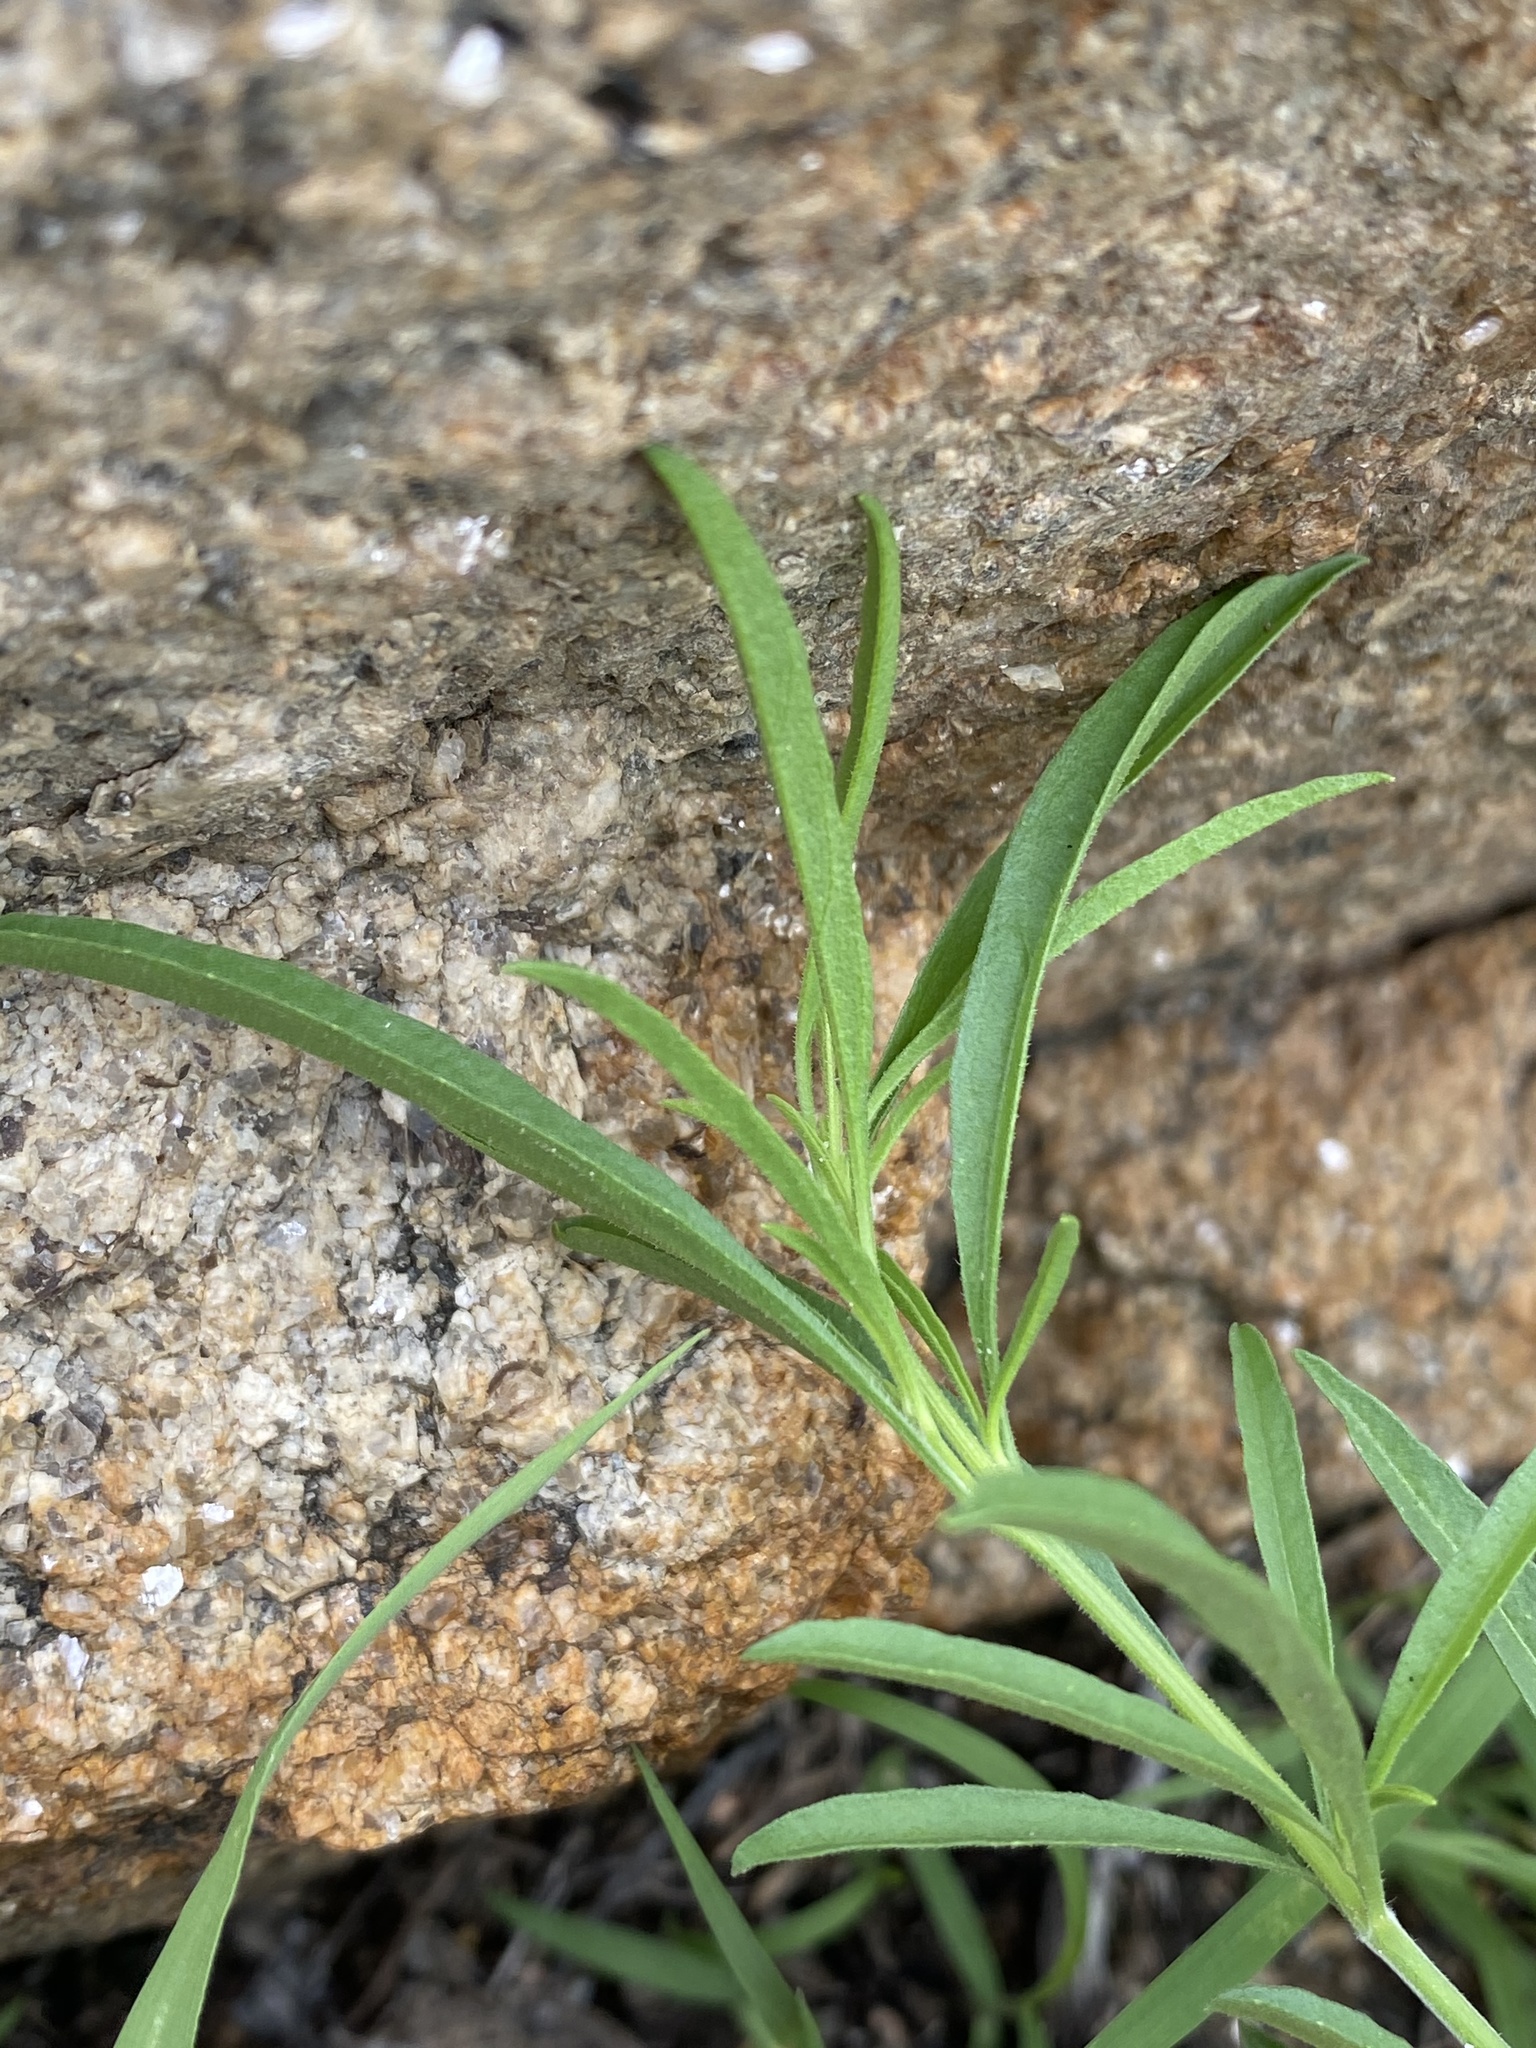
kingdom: Plantae
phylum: Tracheophyta
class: Magnoliopsida
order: Lamiales
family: Acanthaceae
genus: Pogonospermum
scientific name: Pogonospermum
